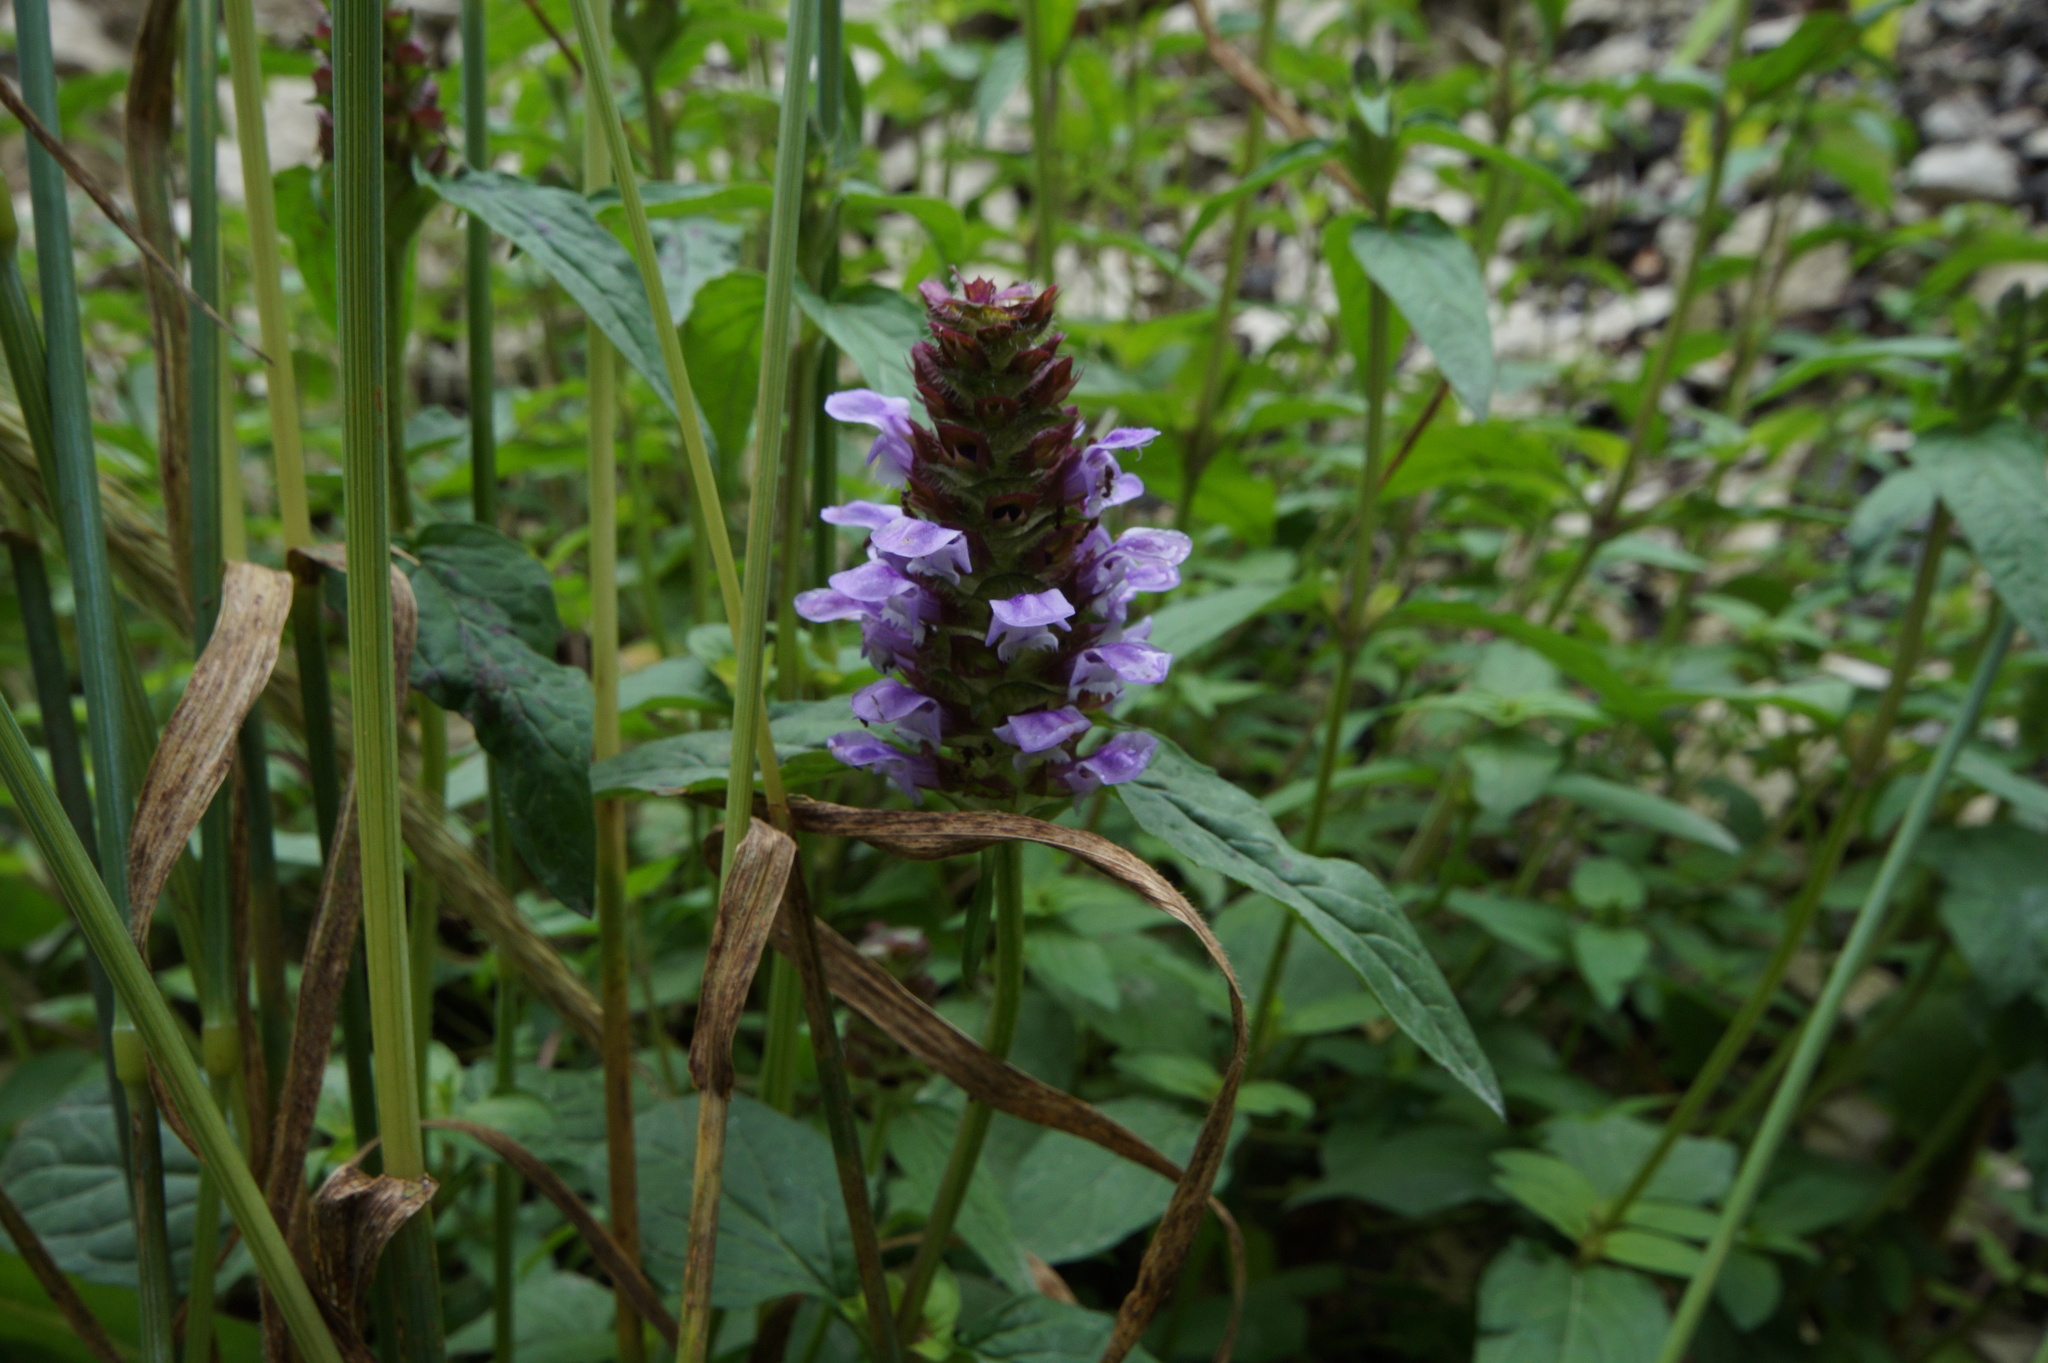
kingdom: Plantae
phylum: Tracheophyta
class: Magnoliopsida
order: Lamiales
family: Lamiaceae
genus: Prunella
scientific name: Prunella vulgaris
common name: Heal-all
